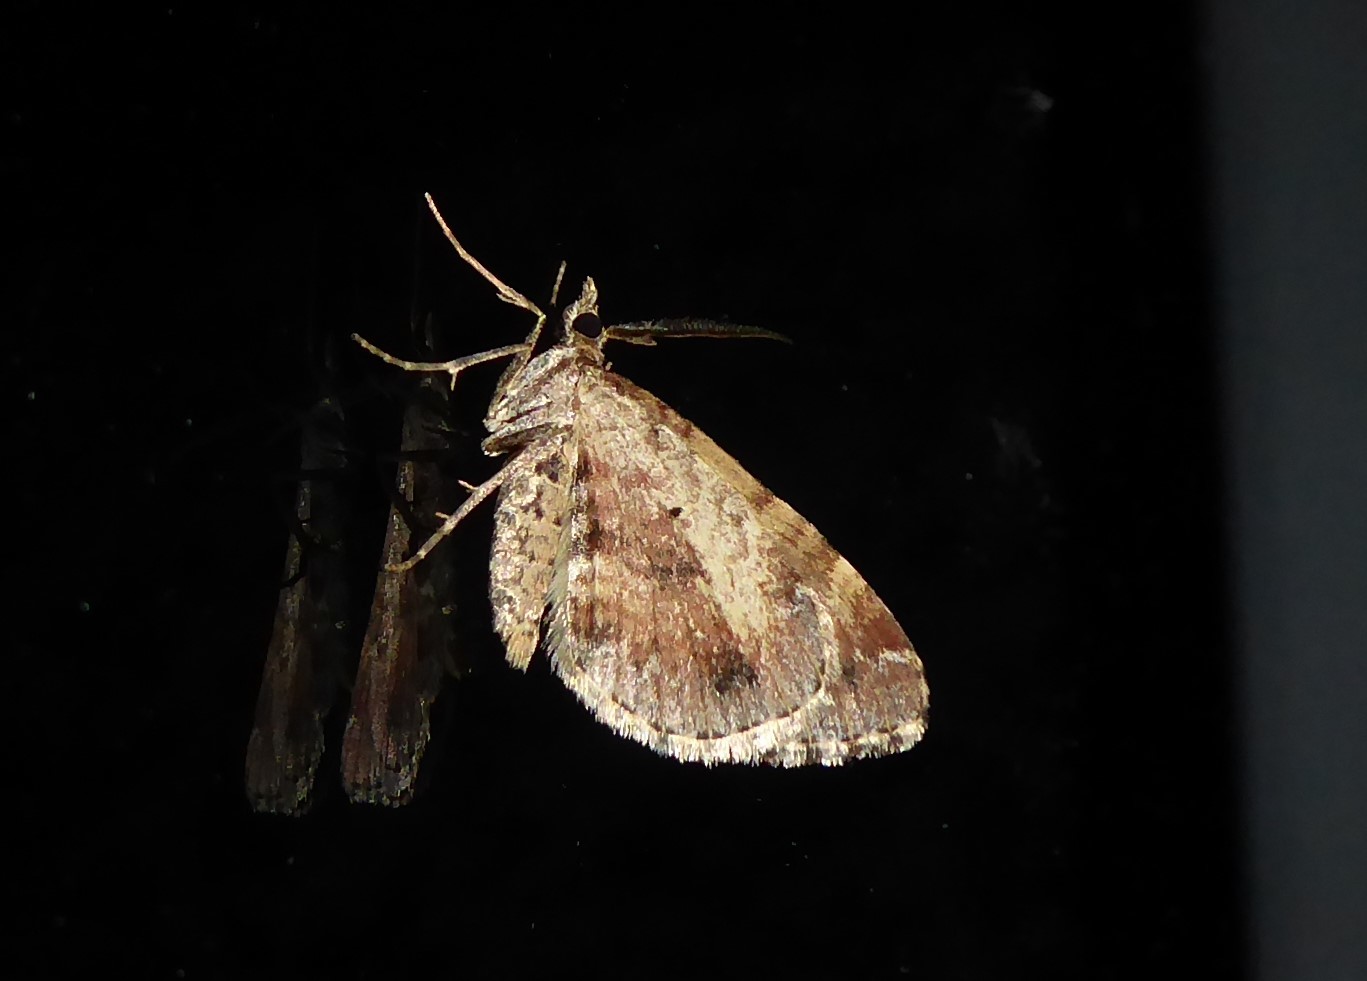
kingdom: Animalia
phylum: Arthropoda
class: Insecta
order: Lepidoptera
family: Geometridae
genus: Asaphodes
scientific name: Asaphodes aegrota
